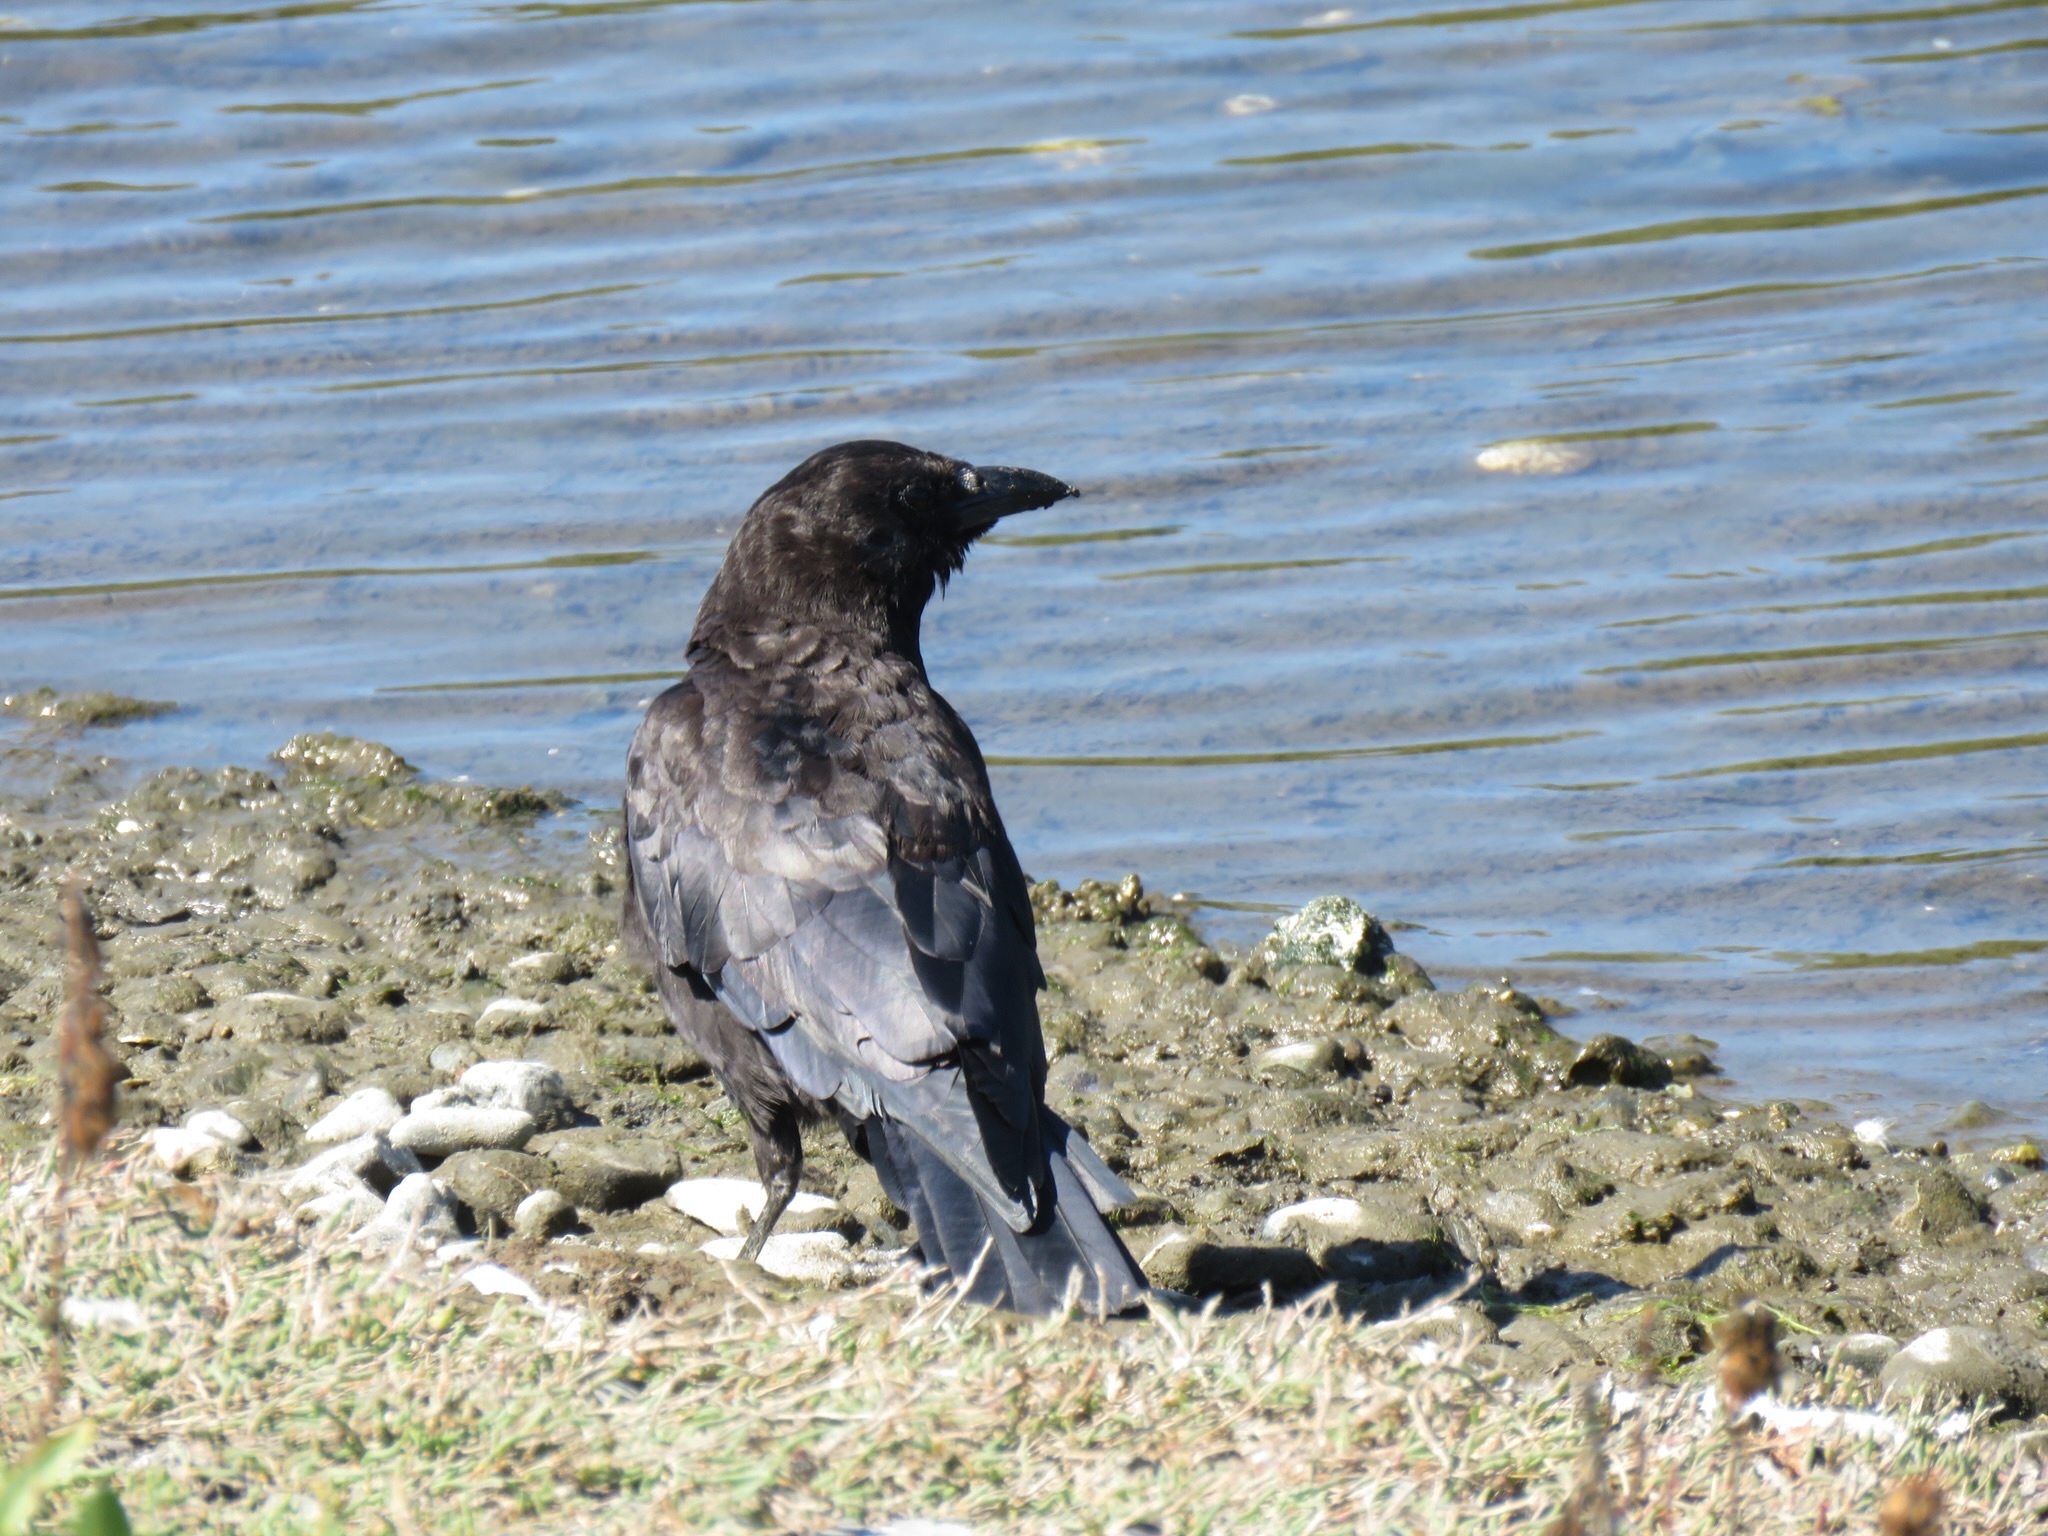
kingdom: Animalia
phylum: Chordata
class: Aves
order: Passeriformes
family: Corvidae
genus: Corvus
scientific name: Corvus brachyrhynchos
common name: American crow
